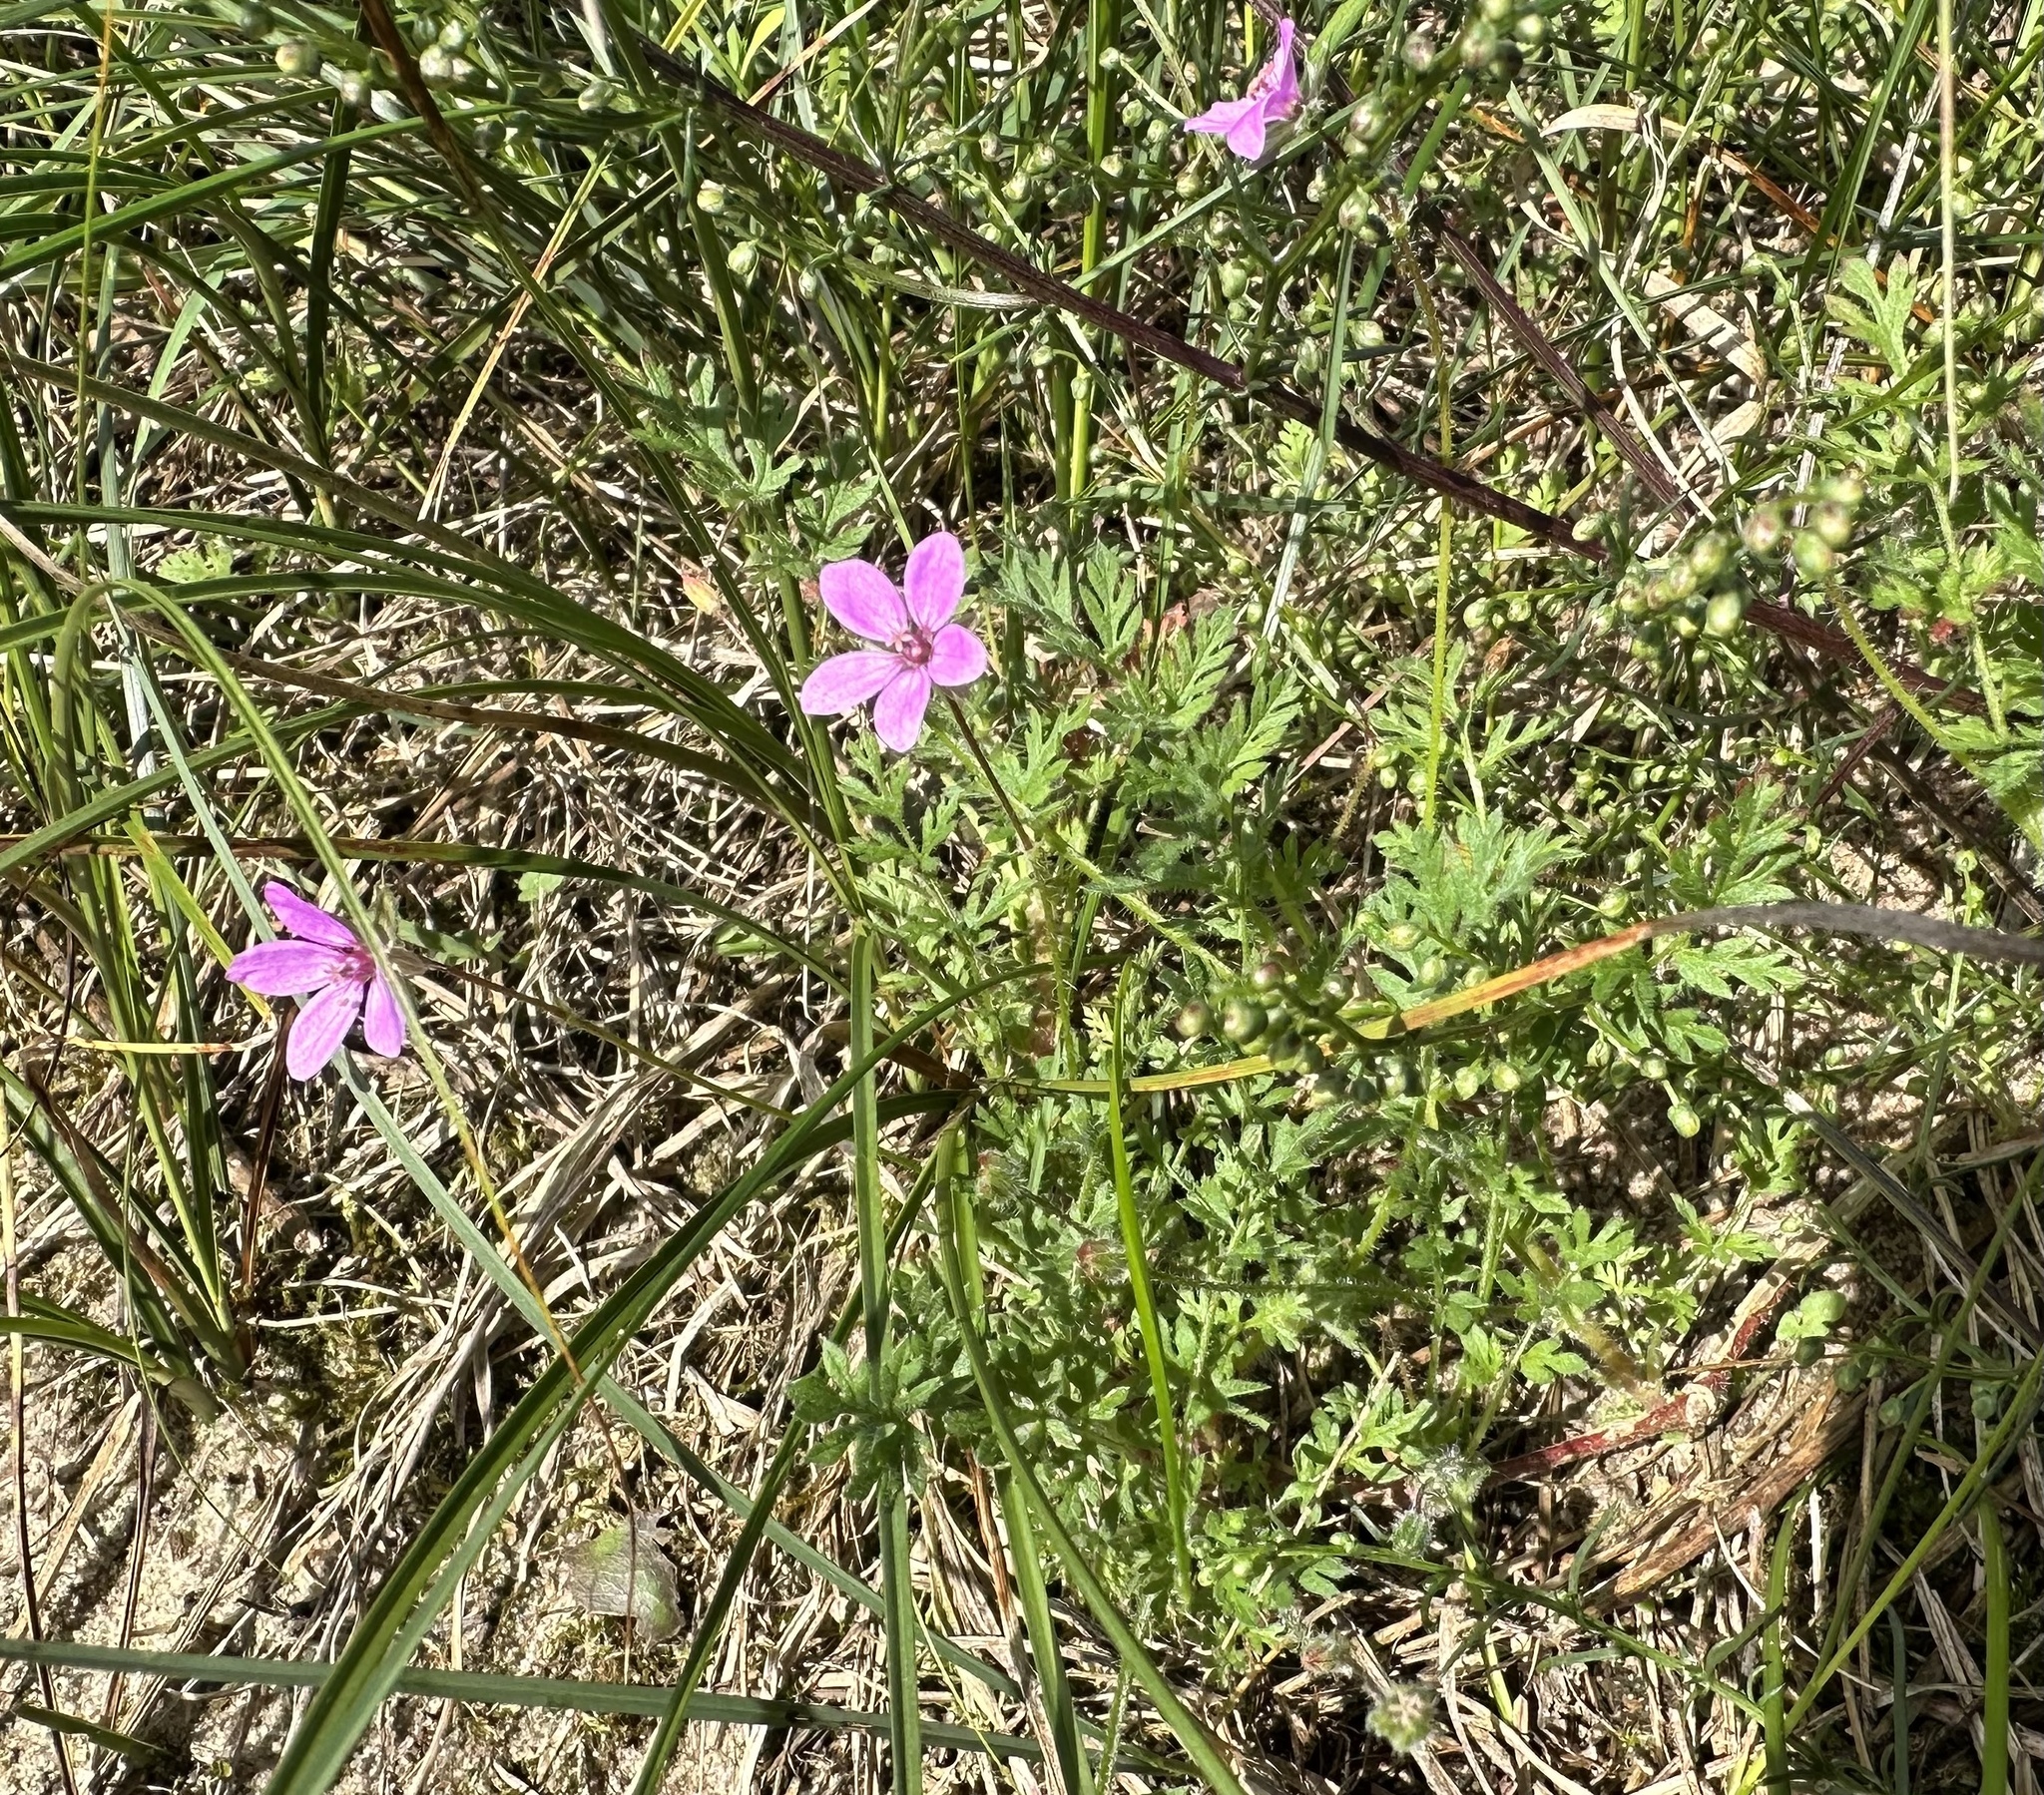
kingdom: Plantae
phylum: Tracheophyta
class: Magnoliopsida
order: Geraniales
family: Geraniaceae
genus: Erodium
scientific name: Erodium cicutarium
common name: Common stork's-bill
